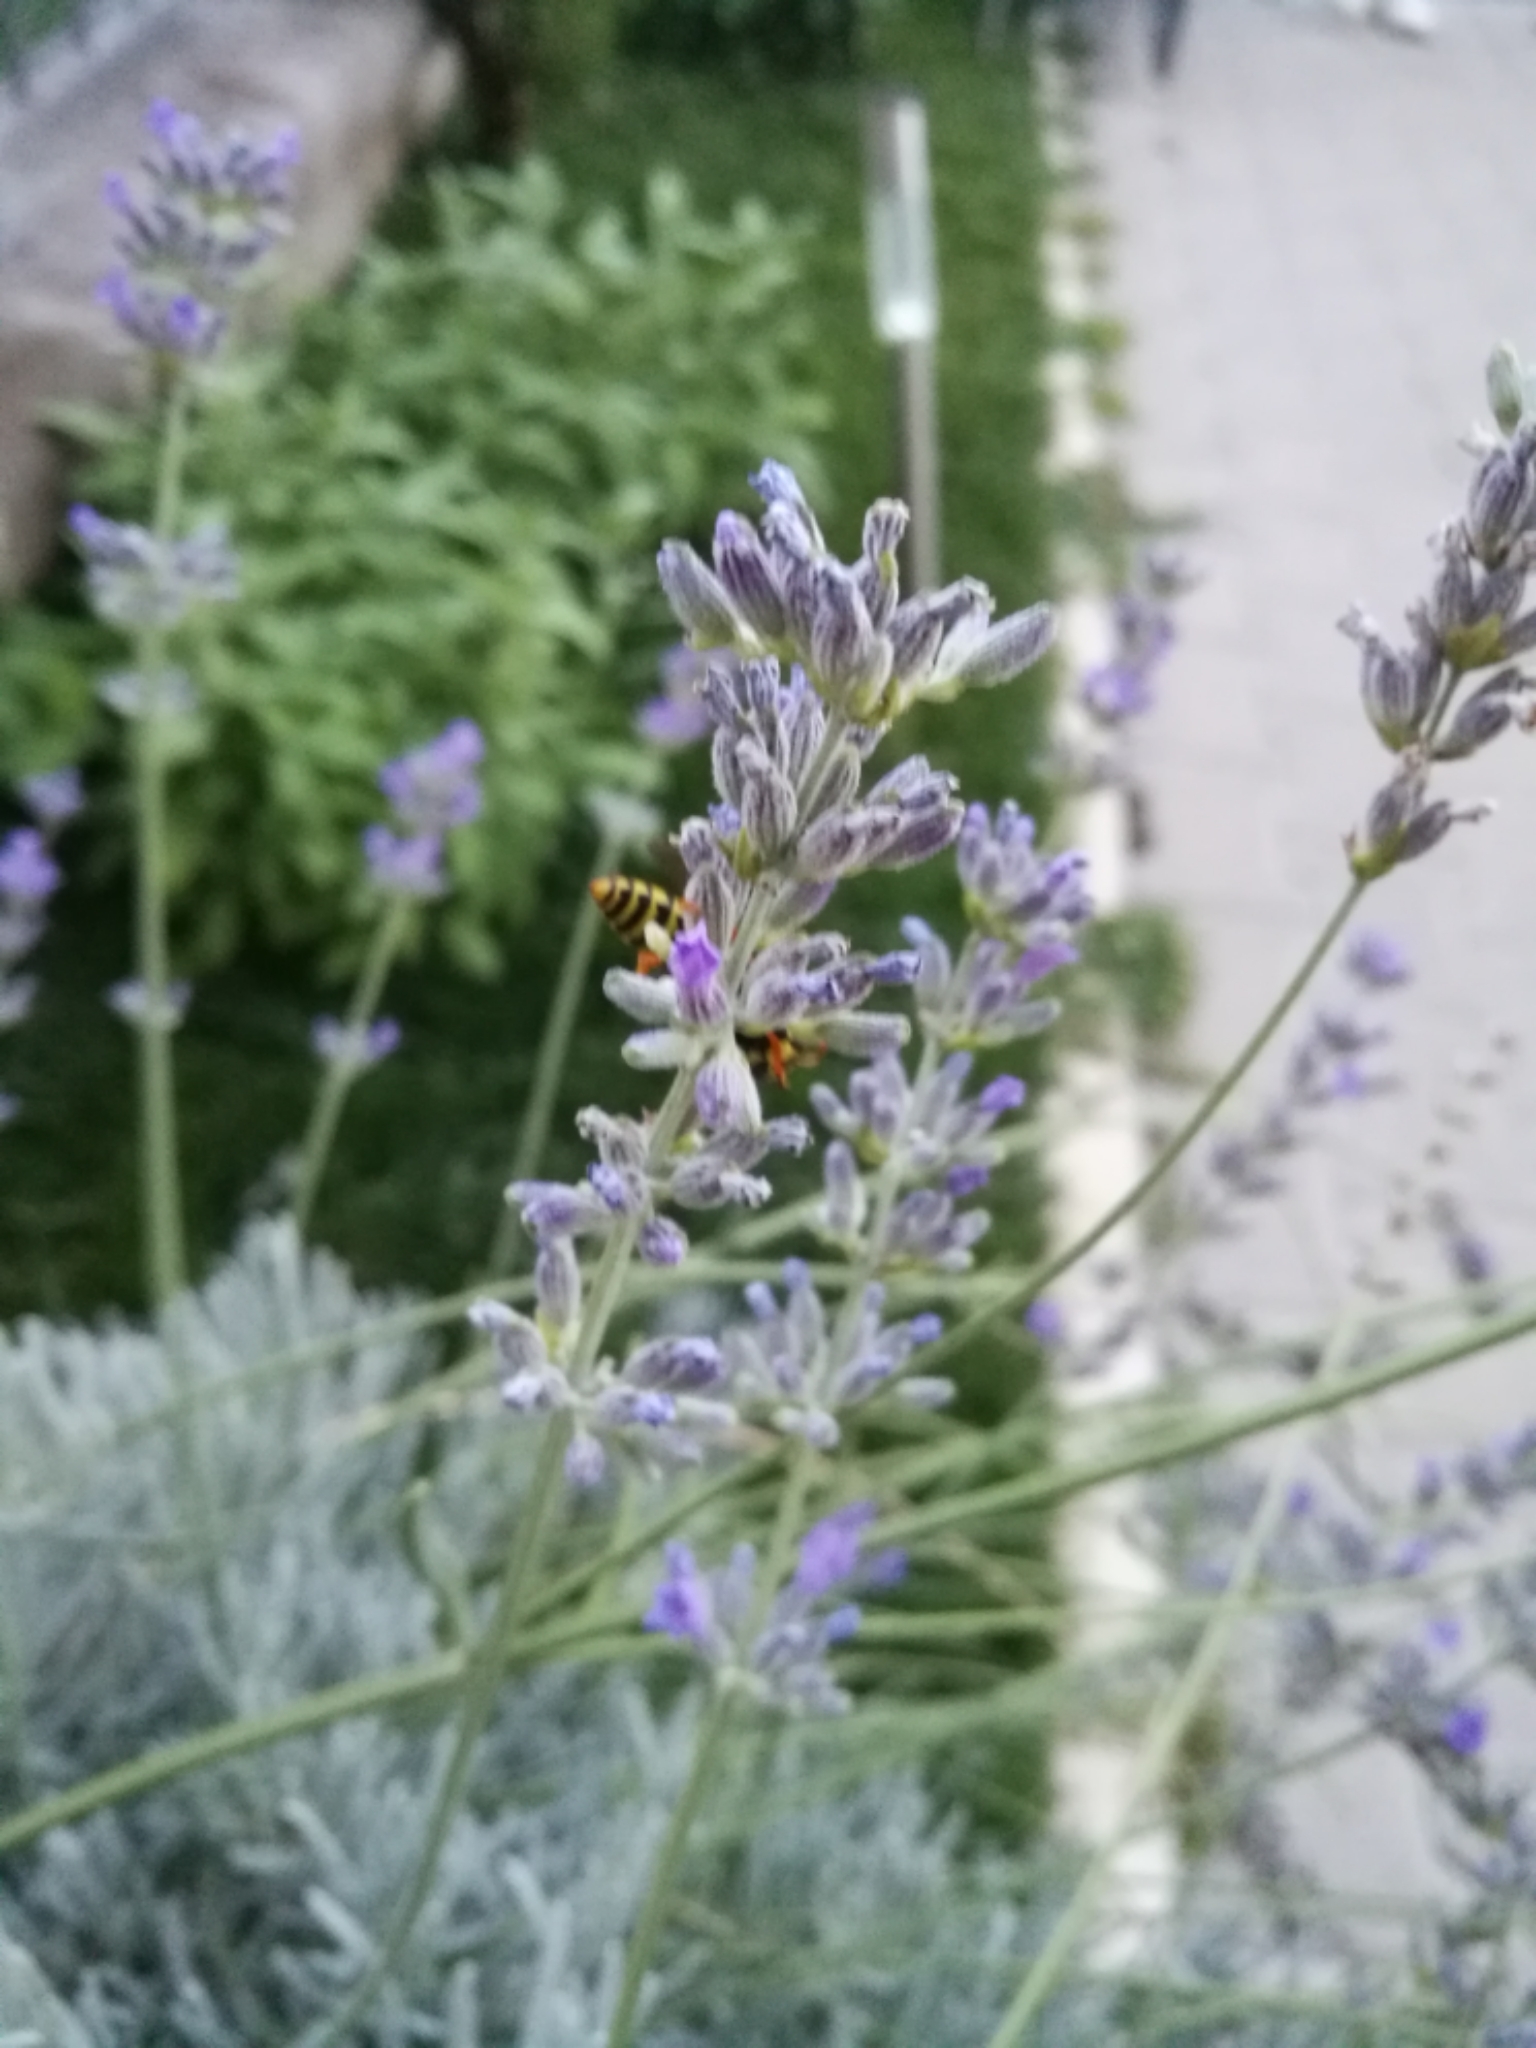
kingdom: Animalia
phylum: Arthropoda
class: Insecta
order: Hymenoptera
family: Eumenidae
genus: Polistes
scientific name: Polistes dominula
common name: Paper wasp
